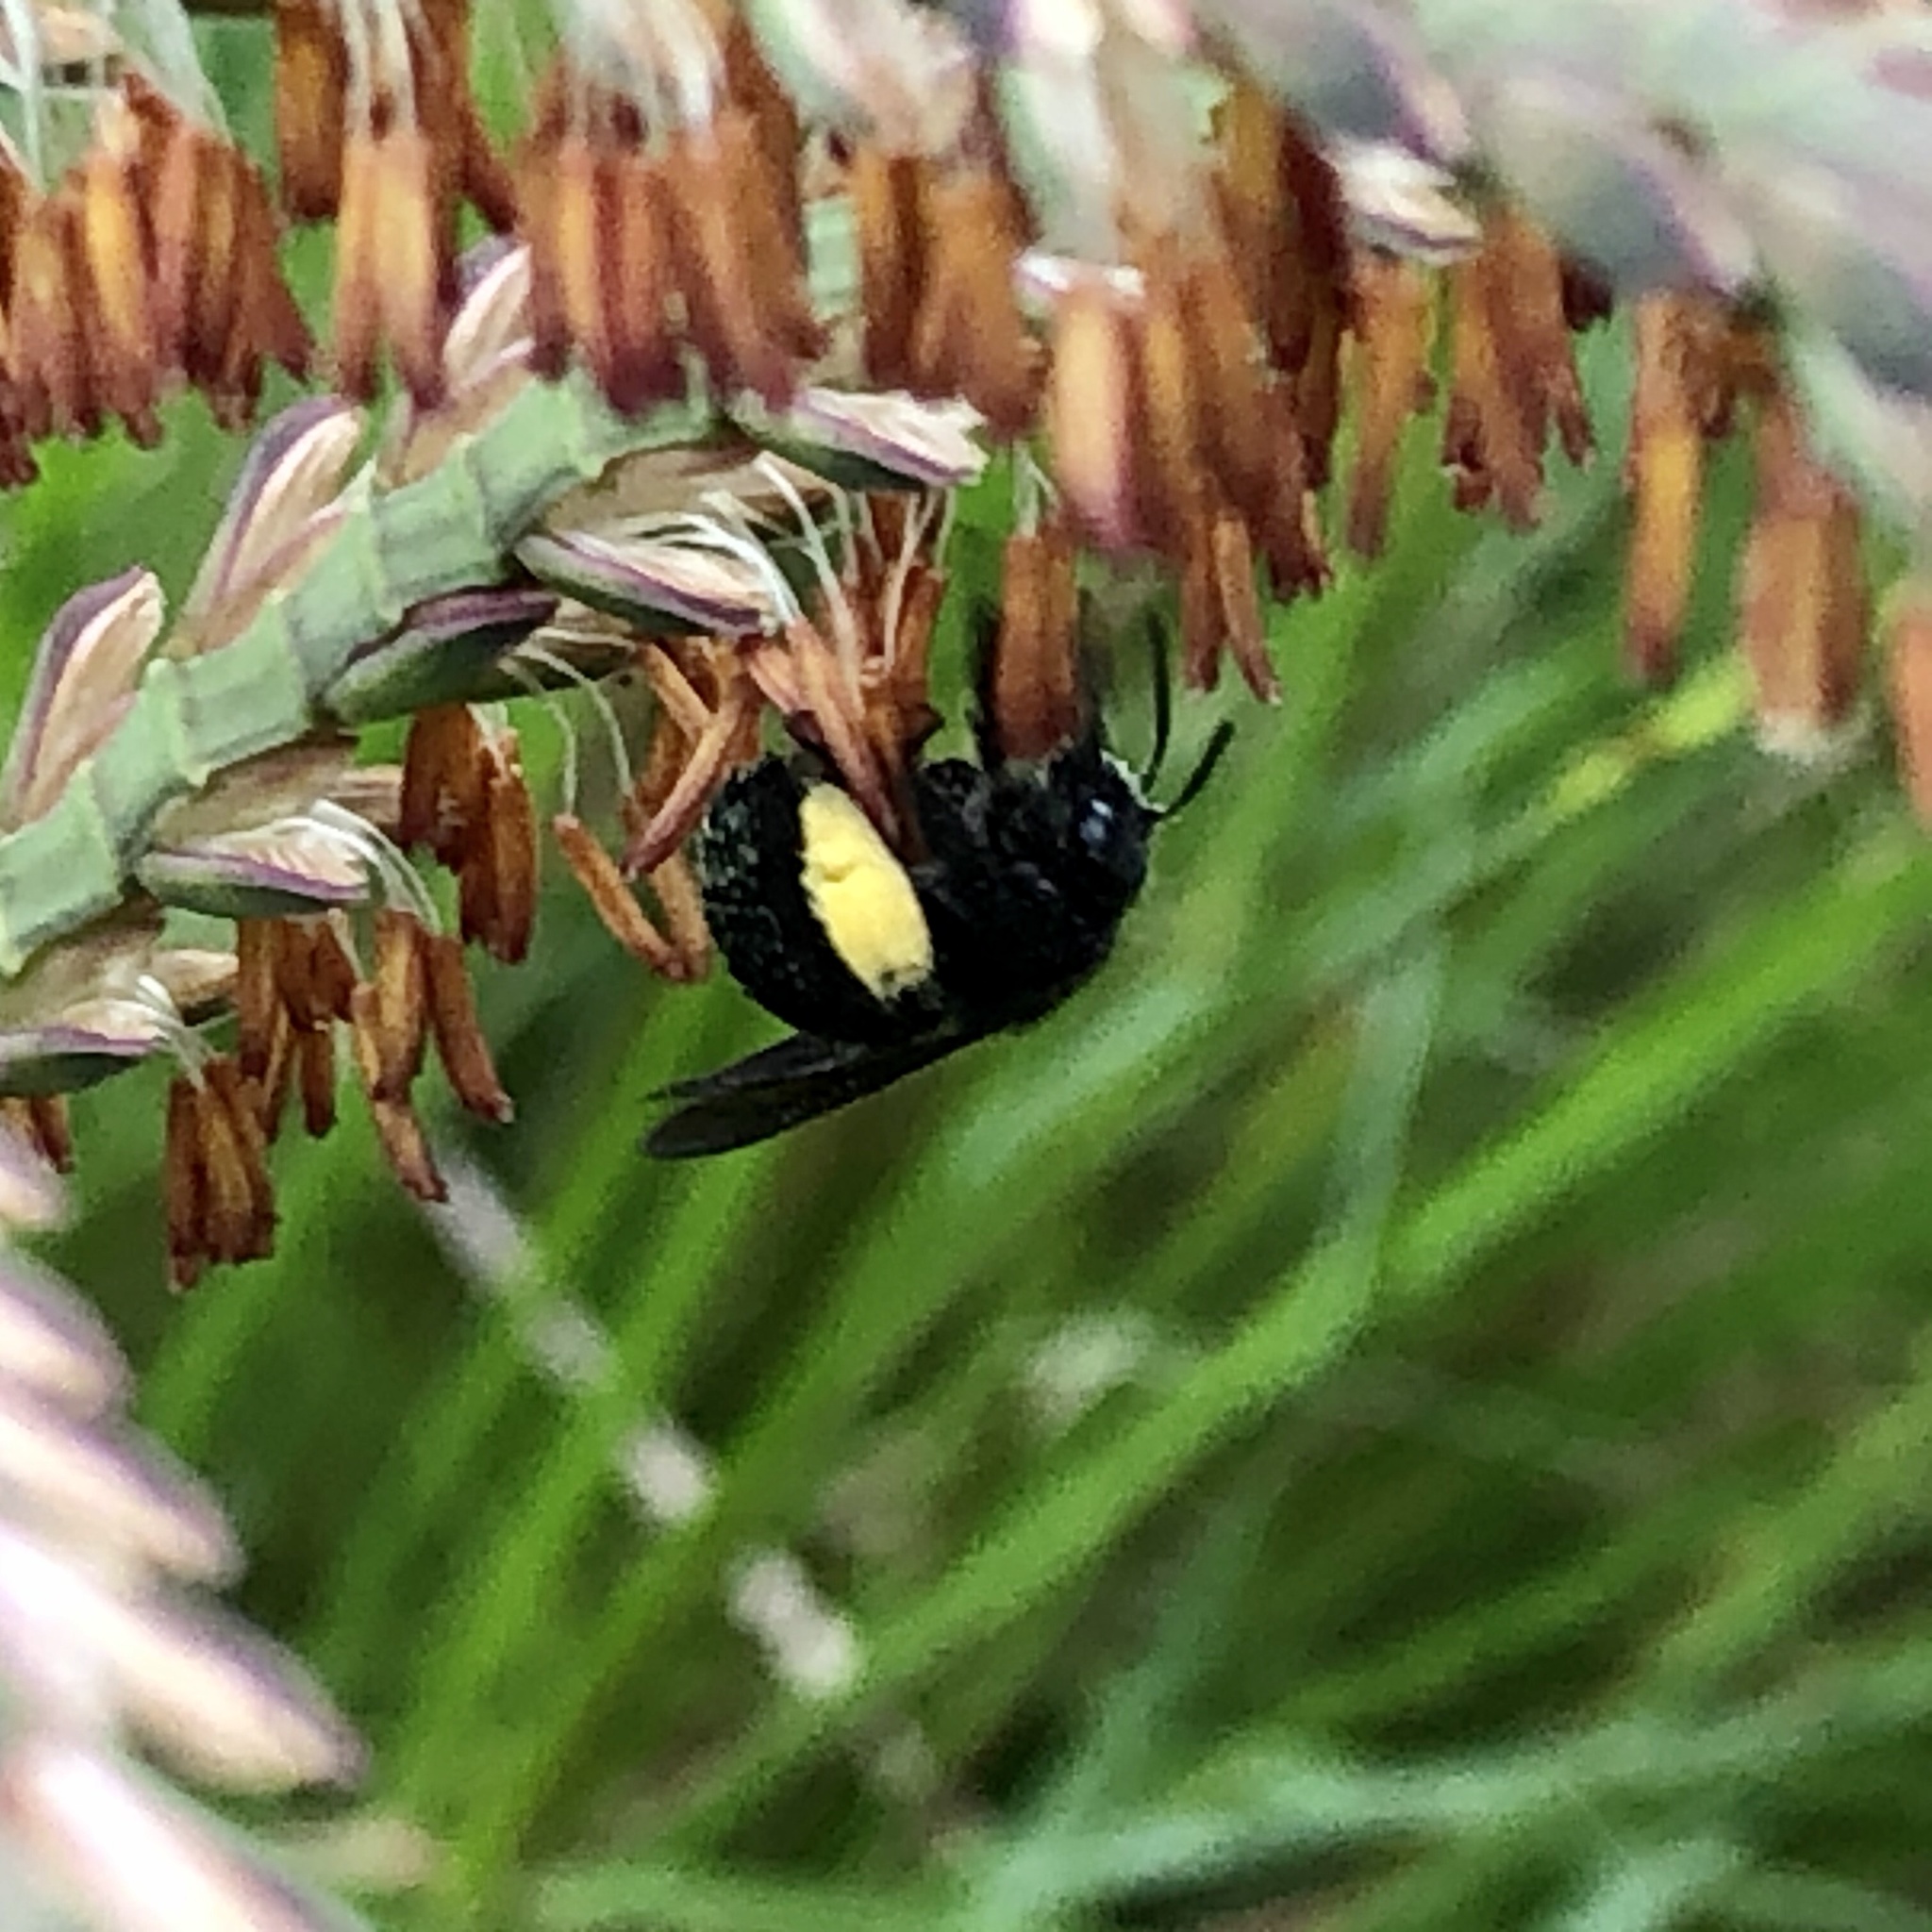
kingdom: Animalia
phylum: Arthropoda
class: Insecta
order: Hymenoptera
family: Apidae
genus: Melissodes
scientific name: Melissodes bimaculatus
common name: Two-spotted long-horned bee
